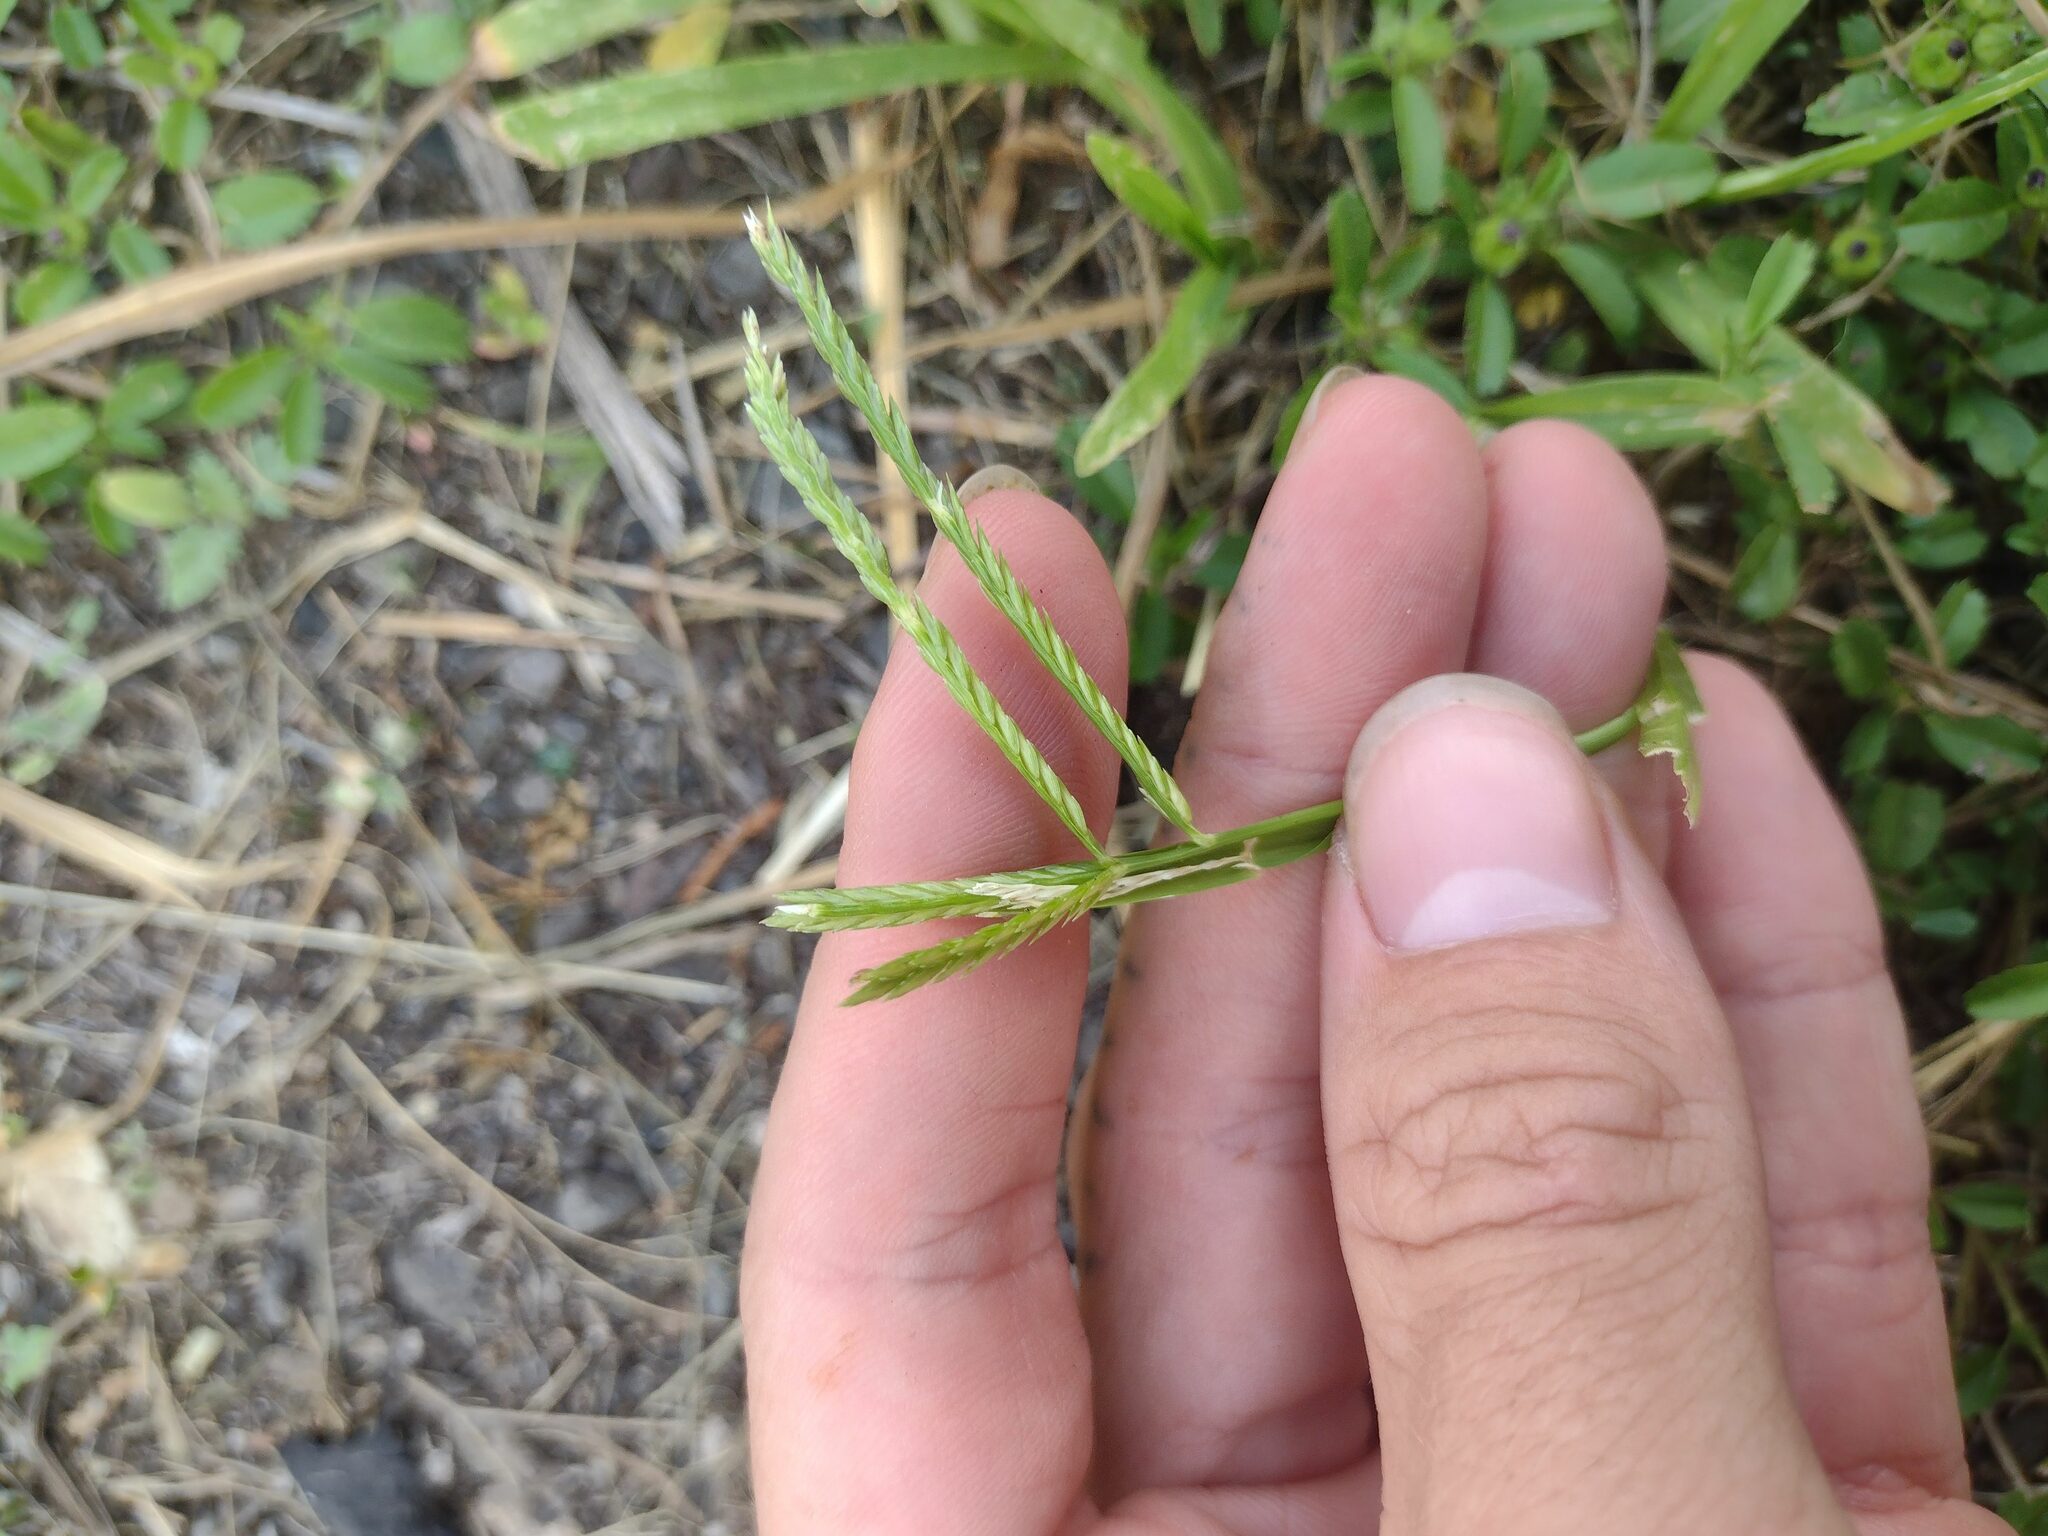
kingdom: Plantae
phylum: Tracheophyta
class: Liliopsida
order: Poales
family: Poaceae
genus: Eleusine
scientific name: Eleusine indica
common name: Yard-grass
